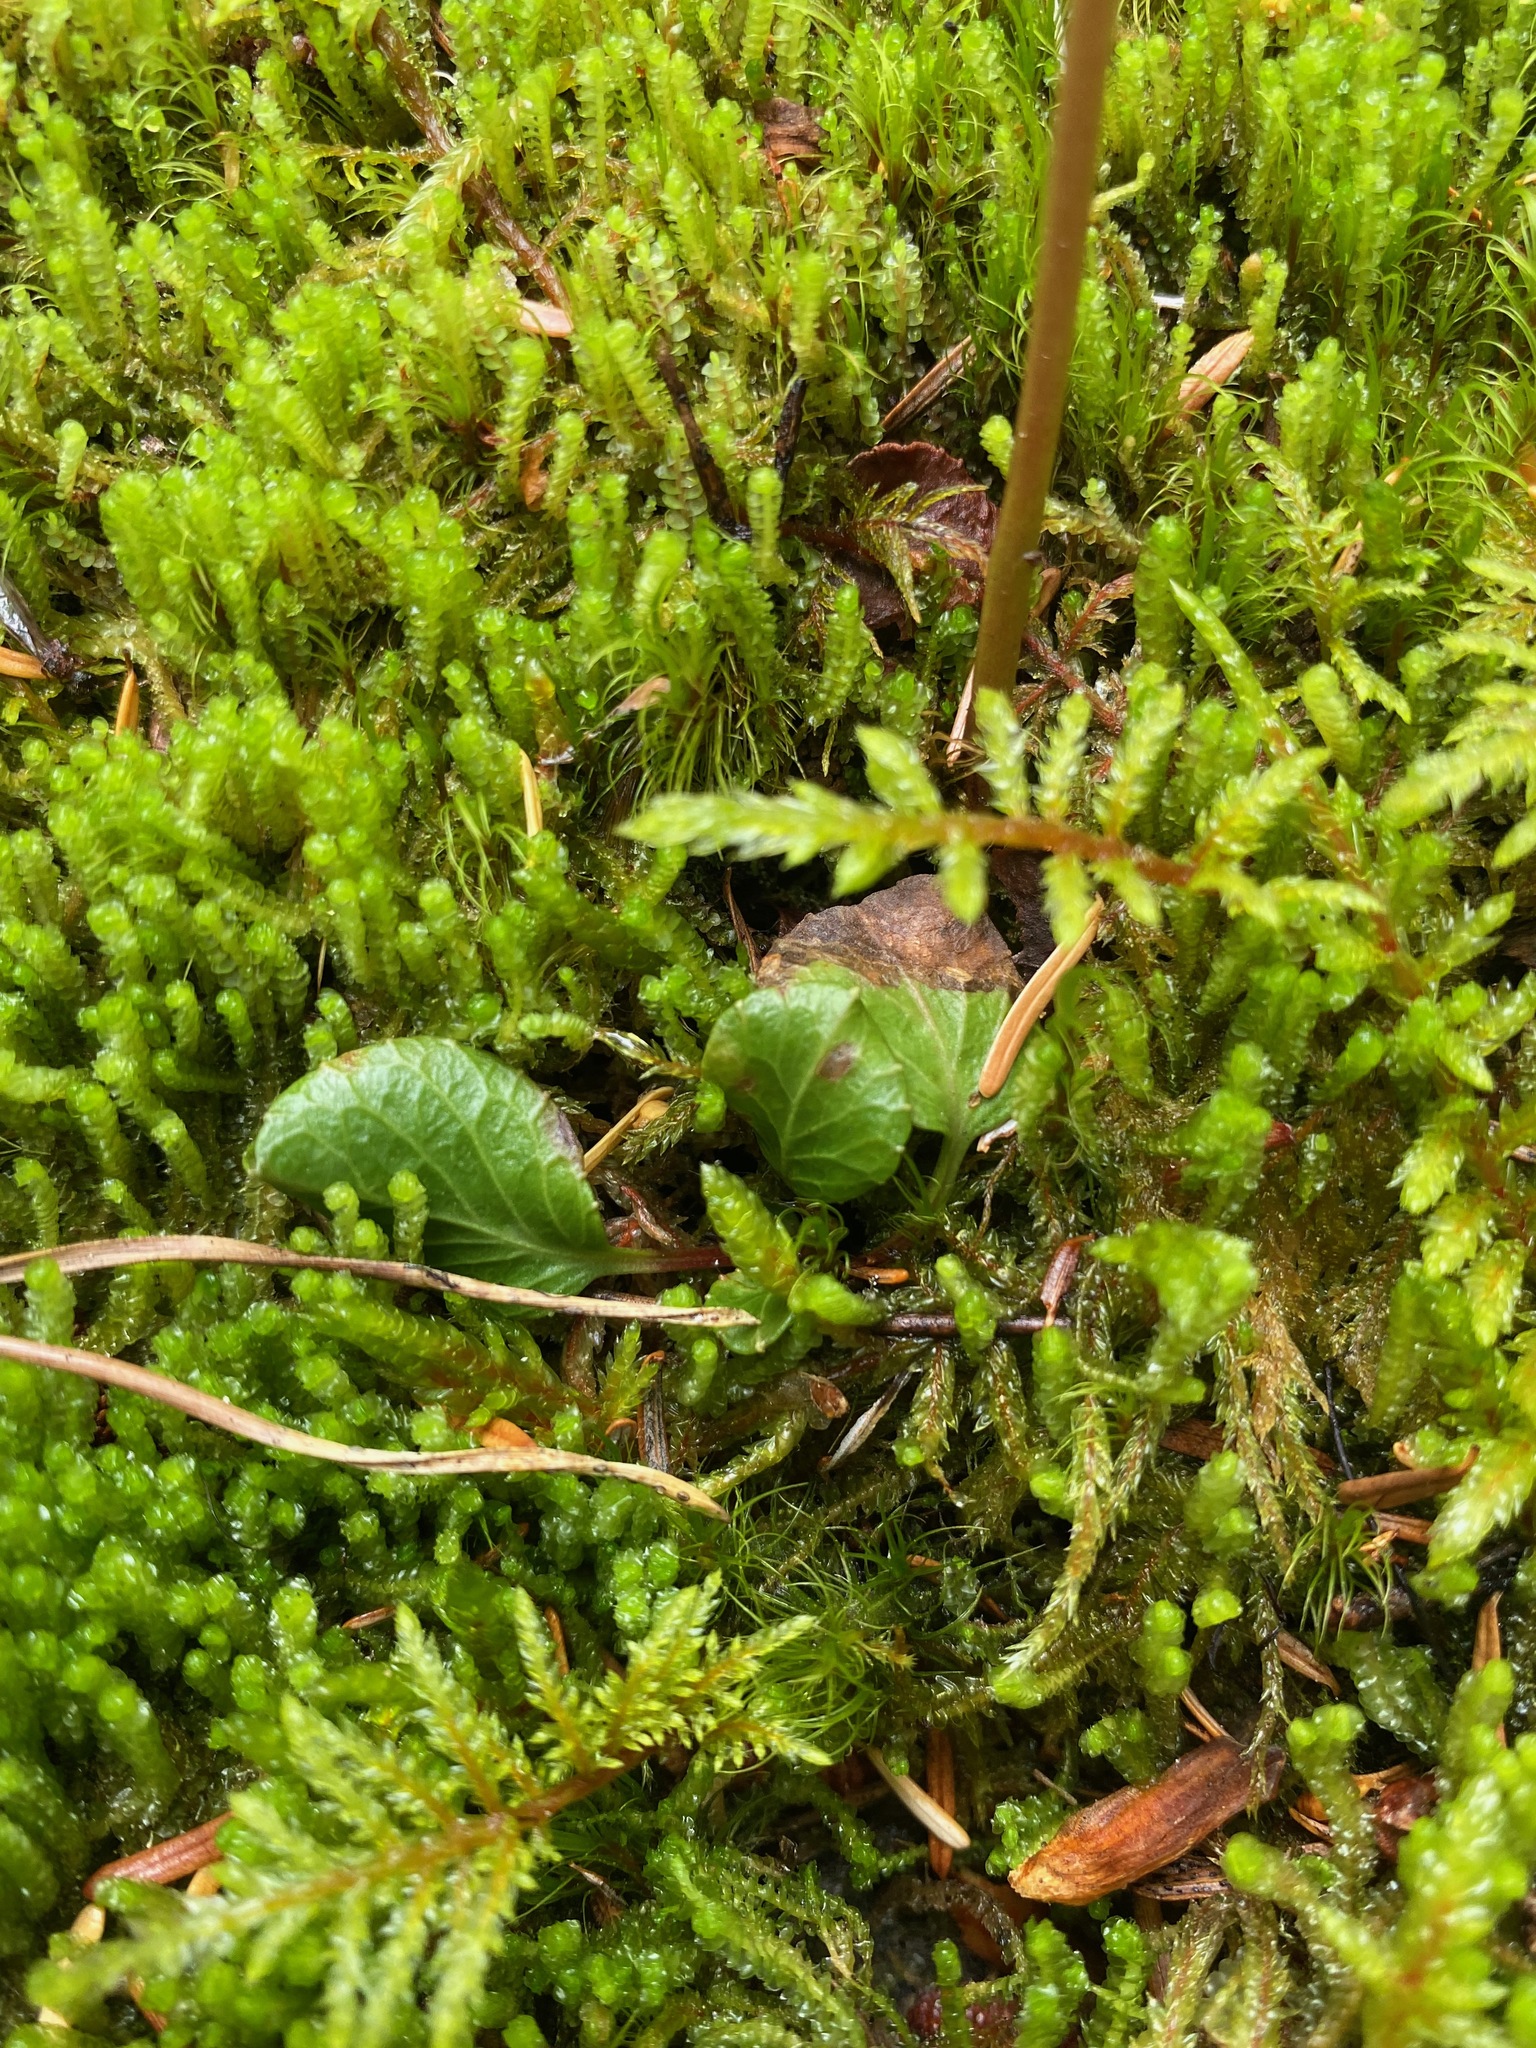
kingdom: Plantae
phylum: Tracheophyta
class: Magnoliopsida
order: Ericales
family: Ericaceae
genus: Pyrola
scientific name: Pyrola chlorantha
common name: Green wintergreen
